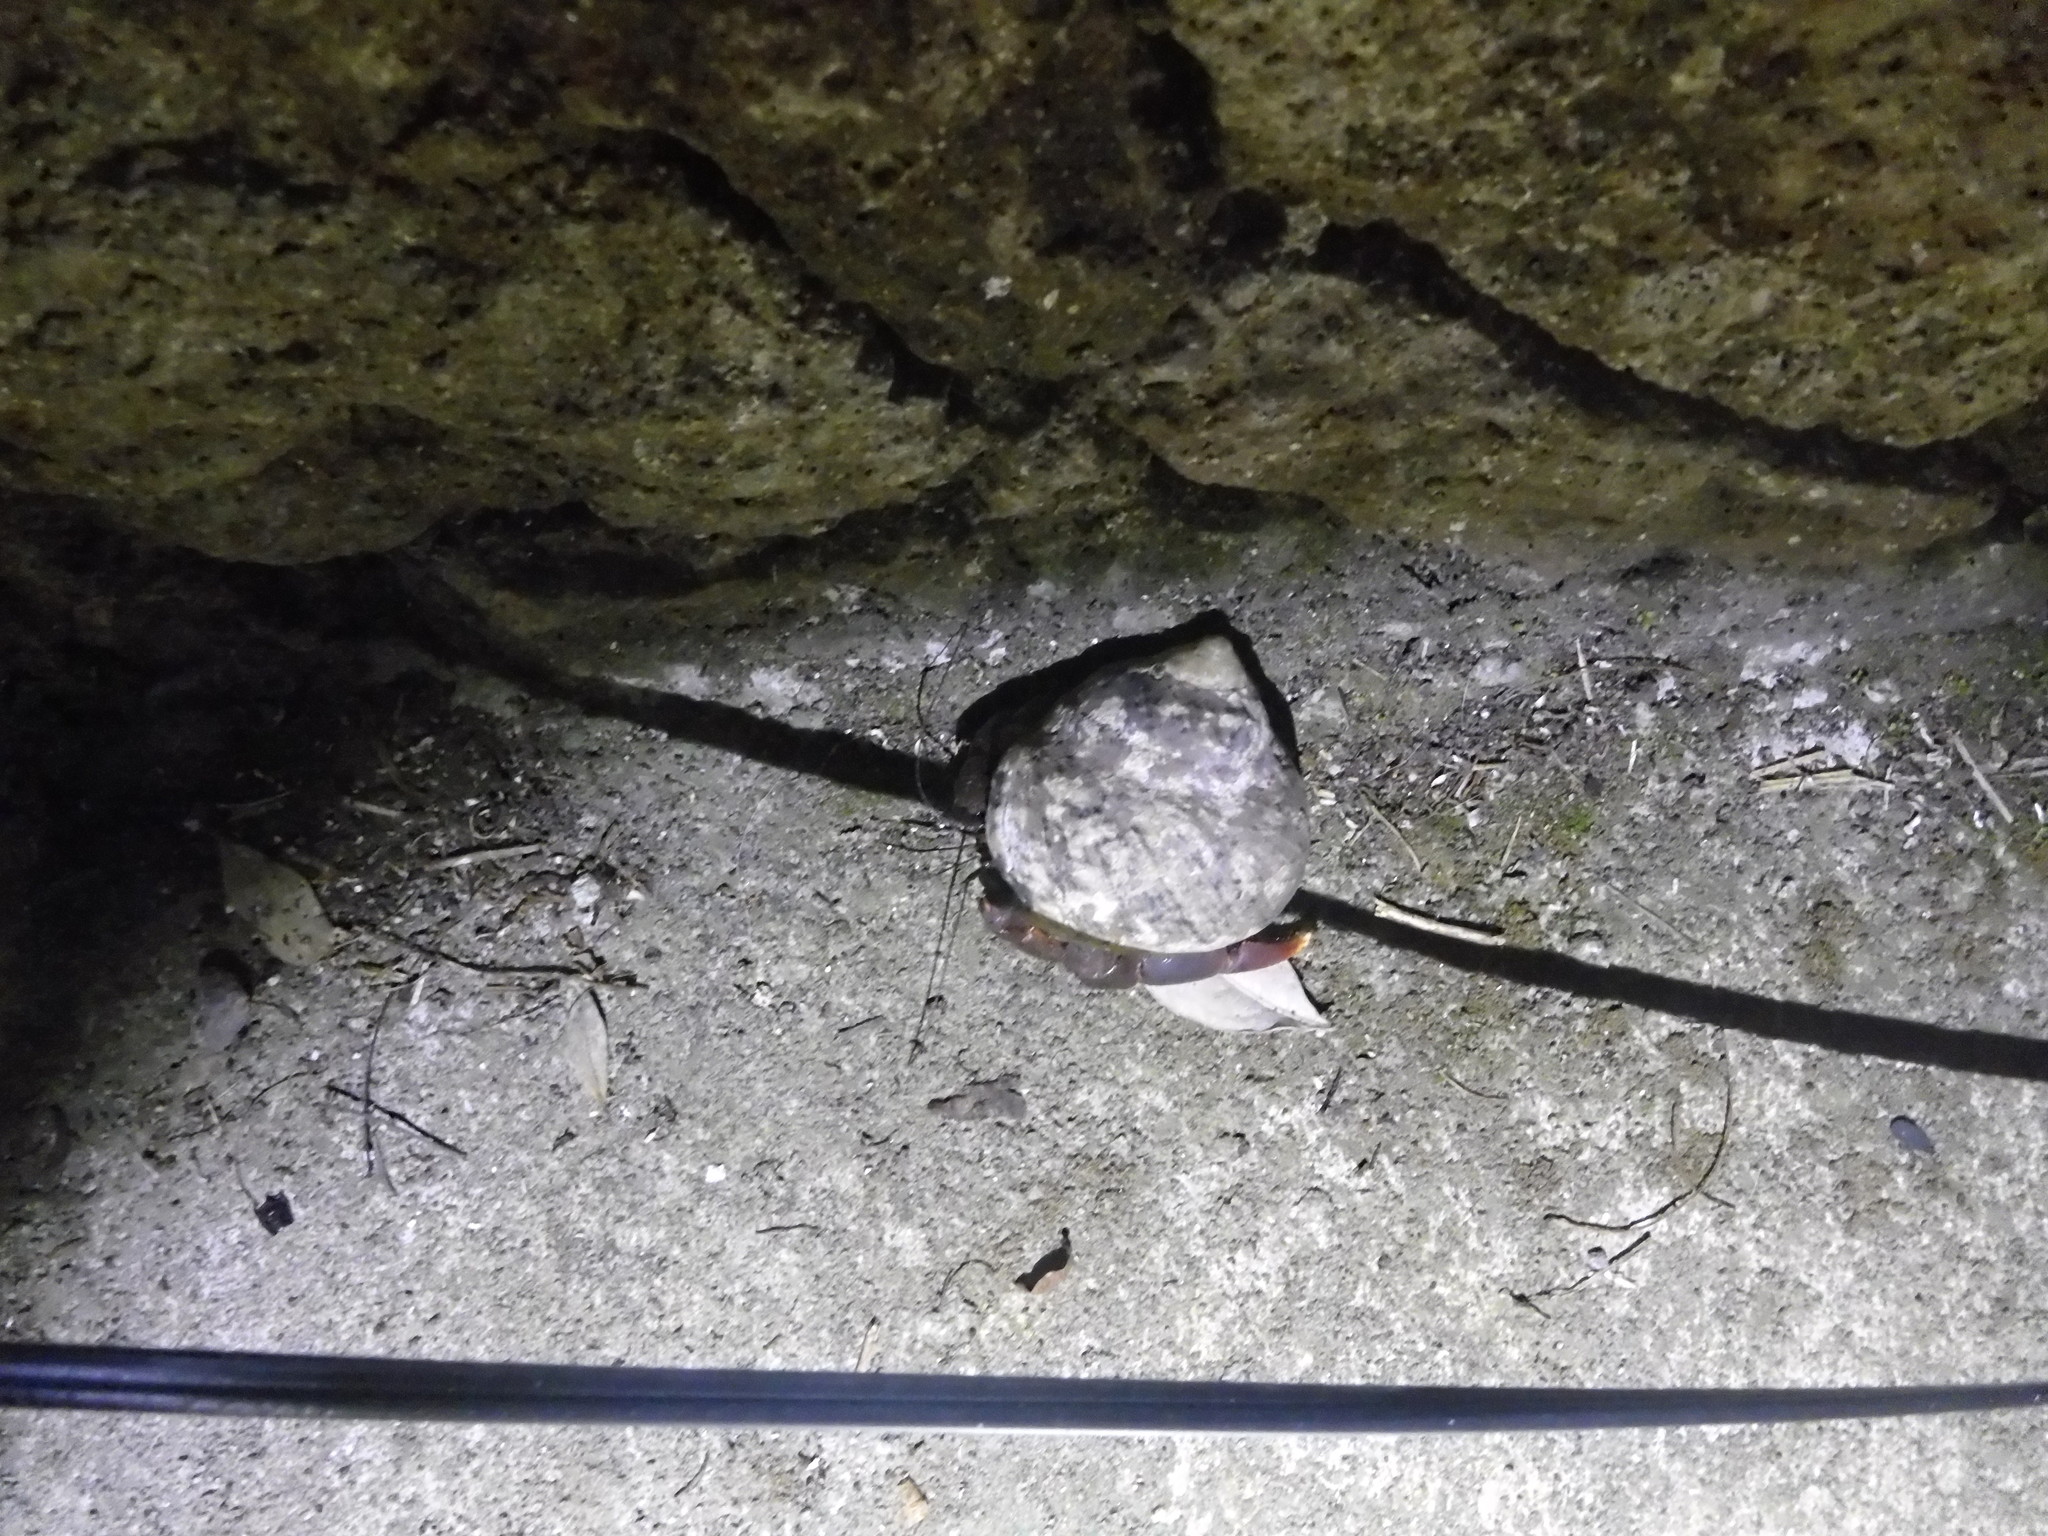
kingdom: Animalia
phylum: Arthropoda
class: Malacostraca
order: Decapoda
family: Coenobitidae
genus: Coenobita
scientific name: Coenobita clypeatus
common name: Caribbean hermit crab
